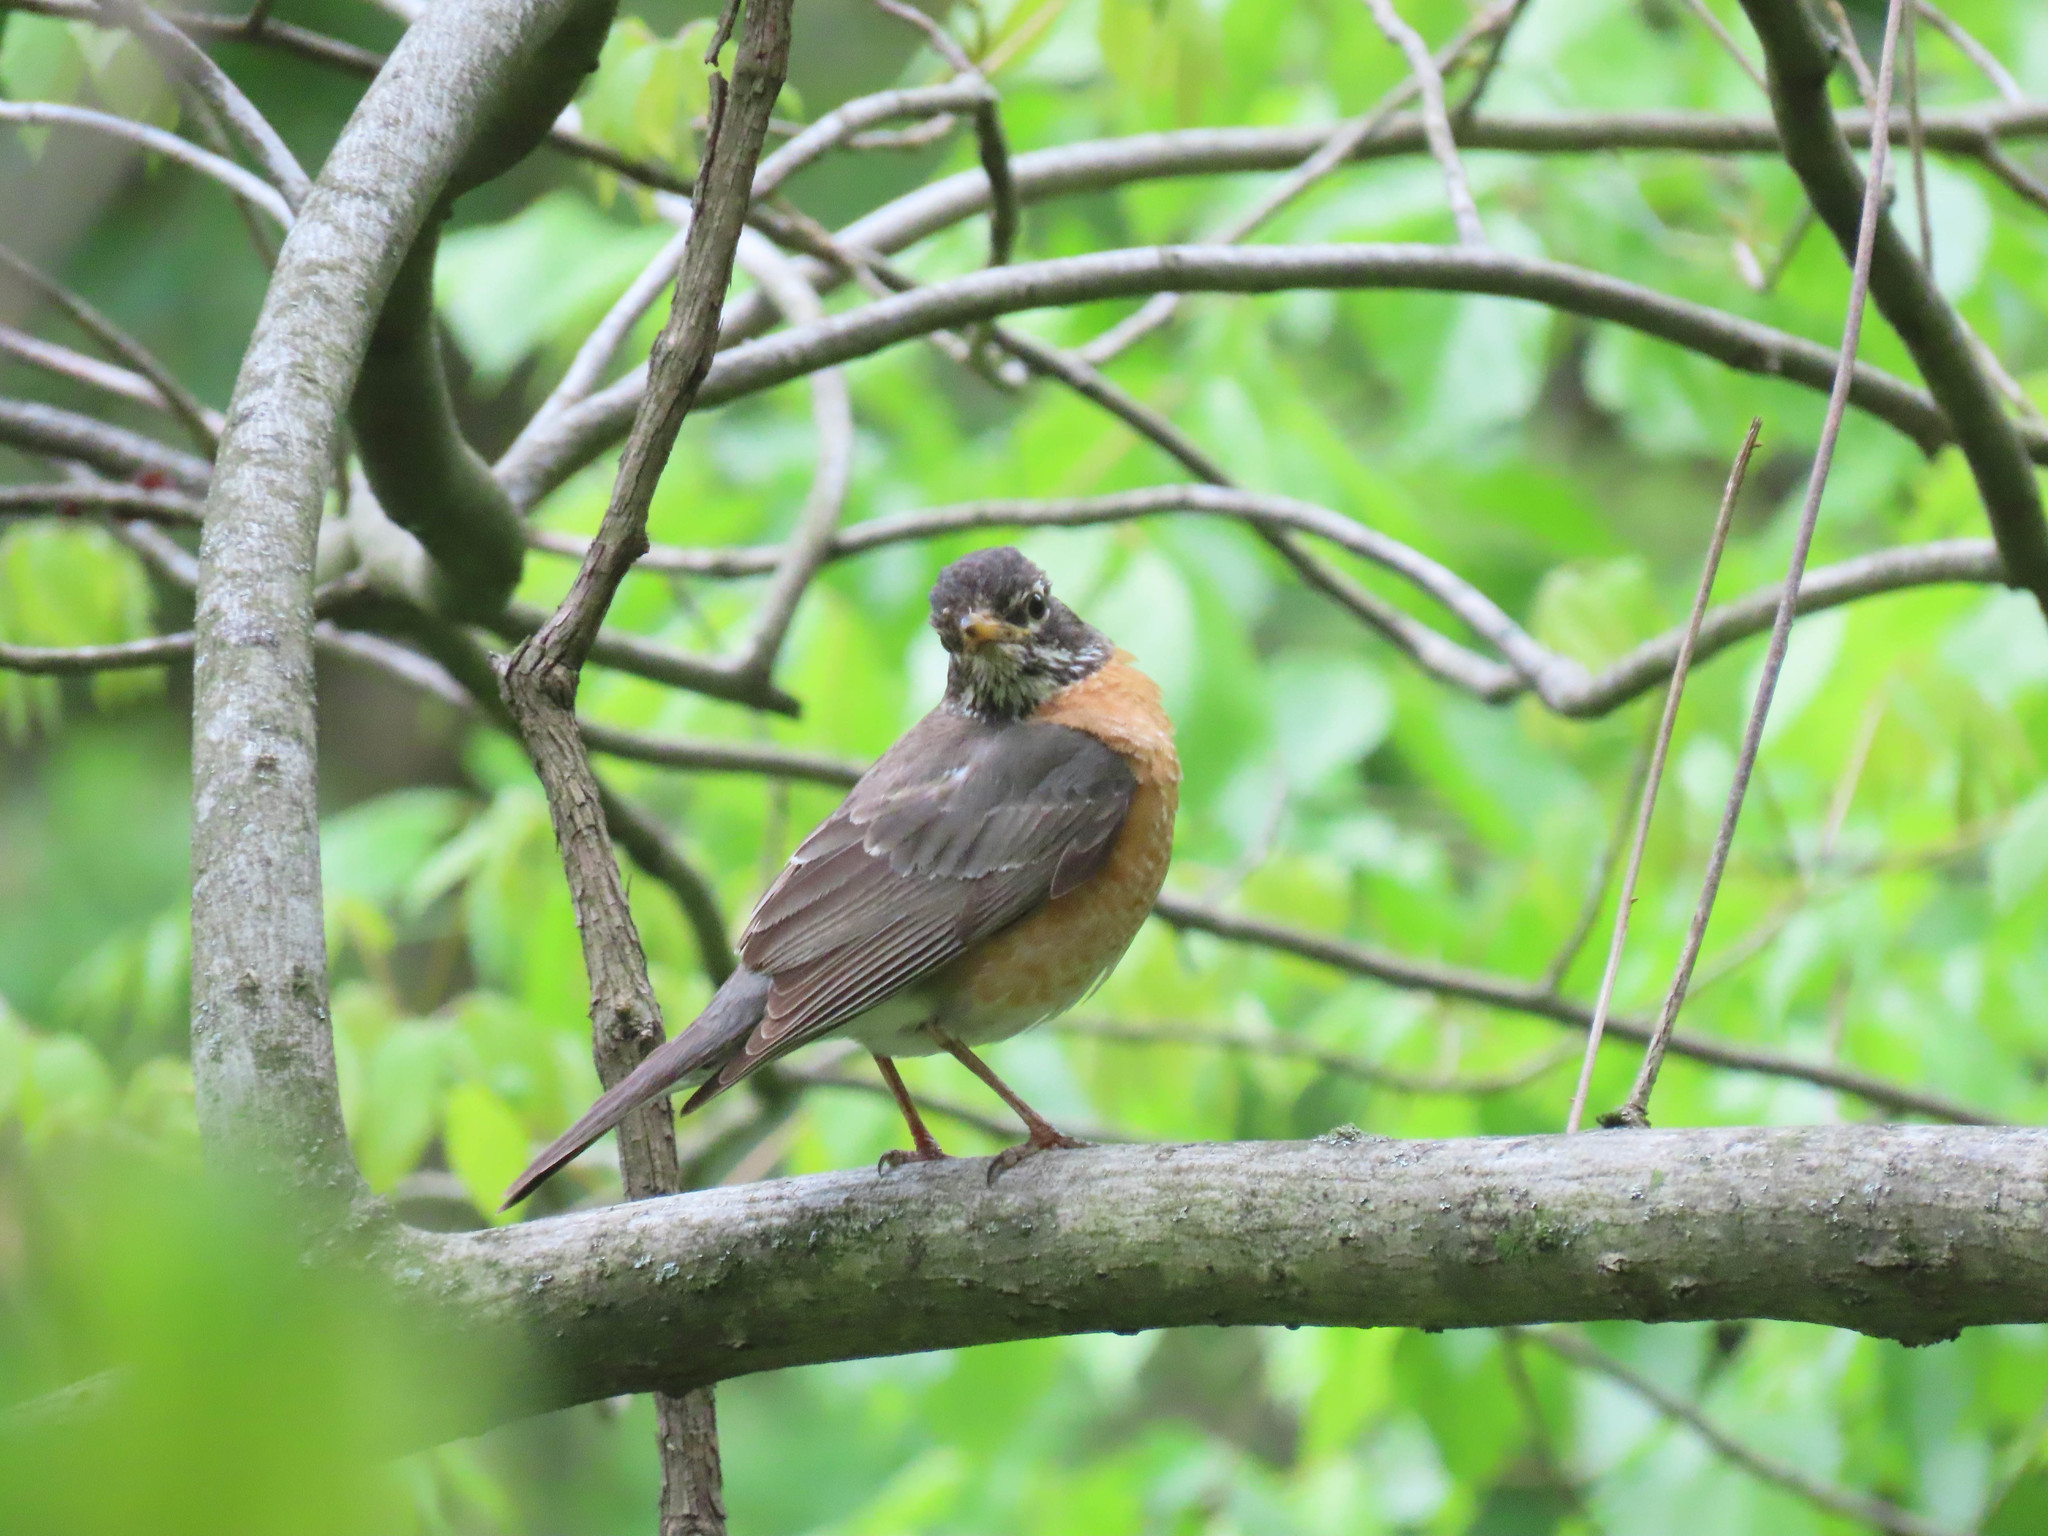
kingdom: Animalia
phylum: Chordata
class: Aves
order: Passeriformes
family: Turdidae
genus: Turdus
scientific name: Turdus migratorius
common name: American robin
